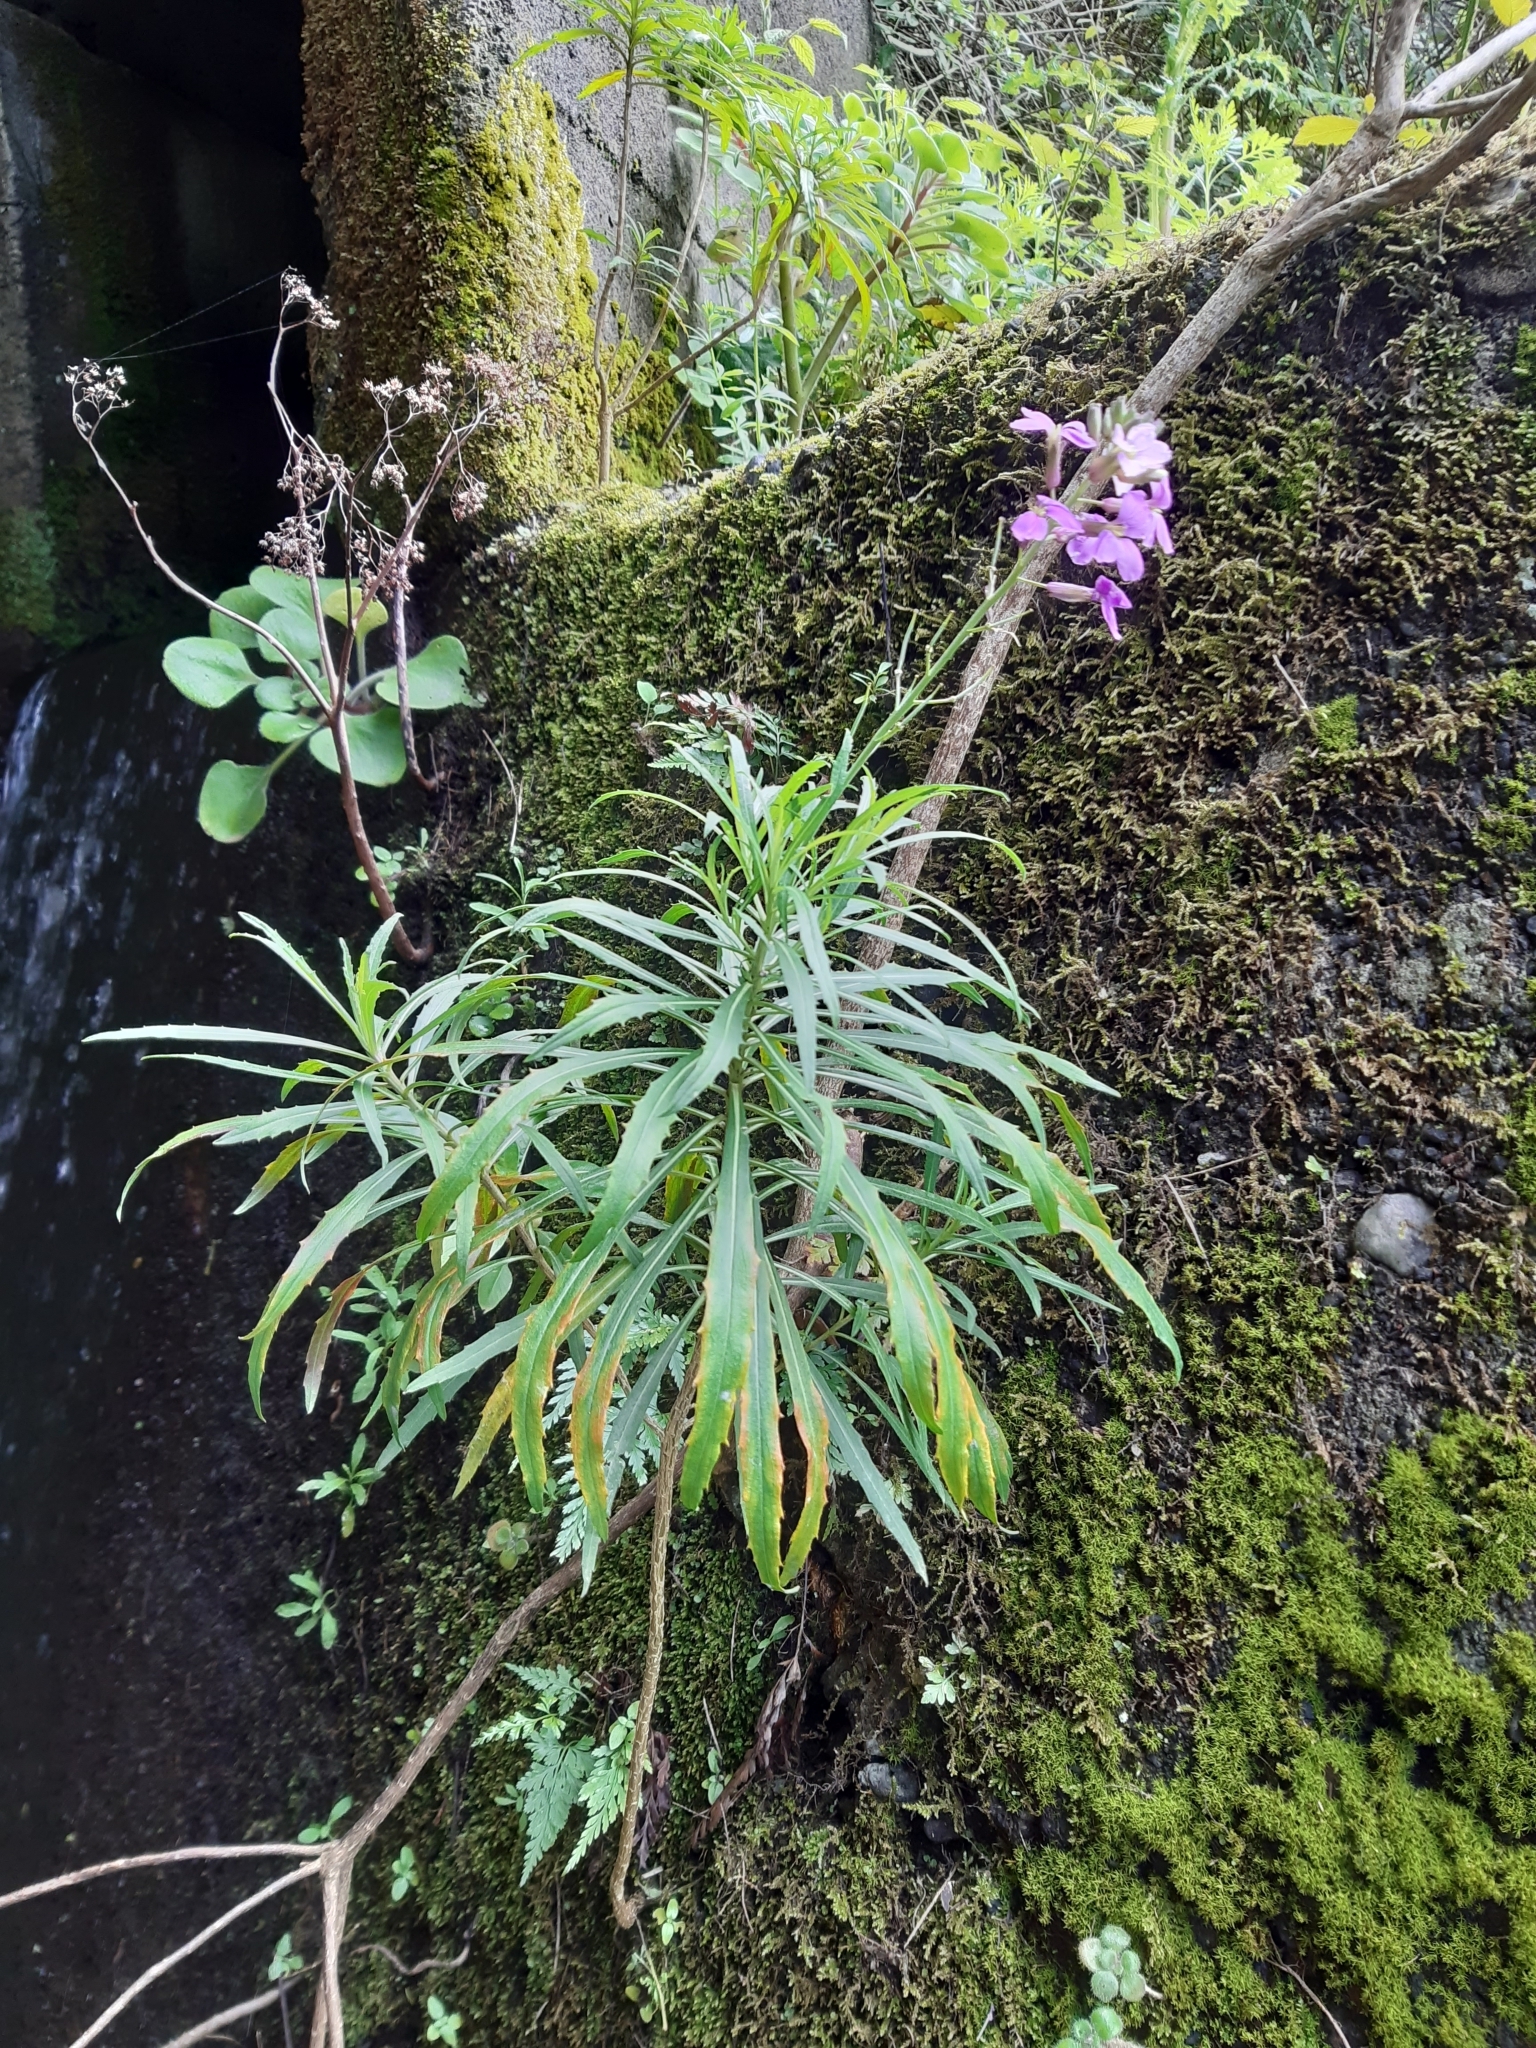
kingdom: Plantae
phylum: Tracheophyta
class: Magnoliopsida
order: Brassicales
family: Brassicaceae
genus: Erysimum
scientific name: Erysimum bicolor
